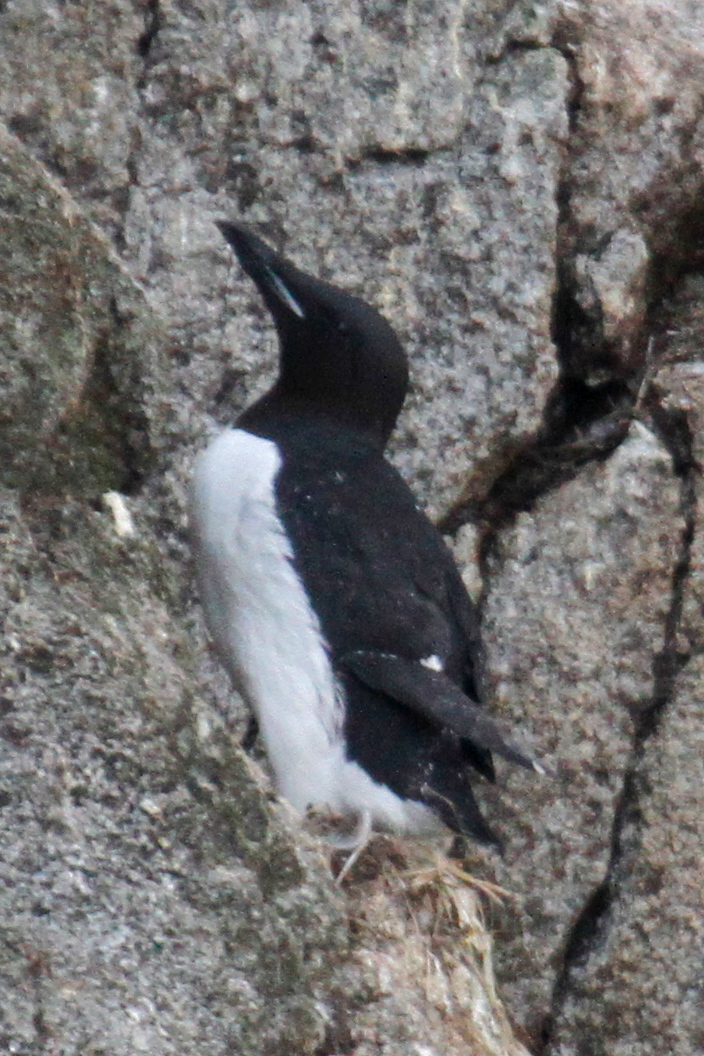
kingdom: Animalia
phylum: Chordata
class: Aves
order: Charadriiformes
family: Alcidae
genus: Uria
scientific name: Uria lomvia
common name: Thick-billed murre
